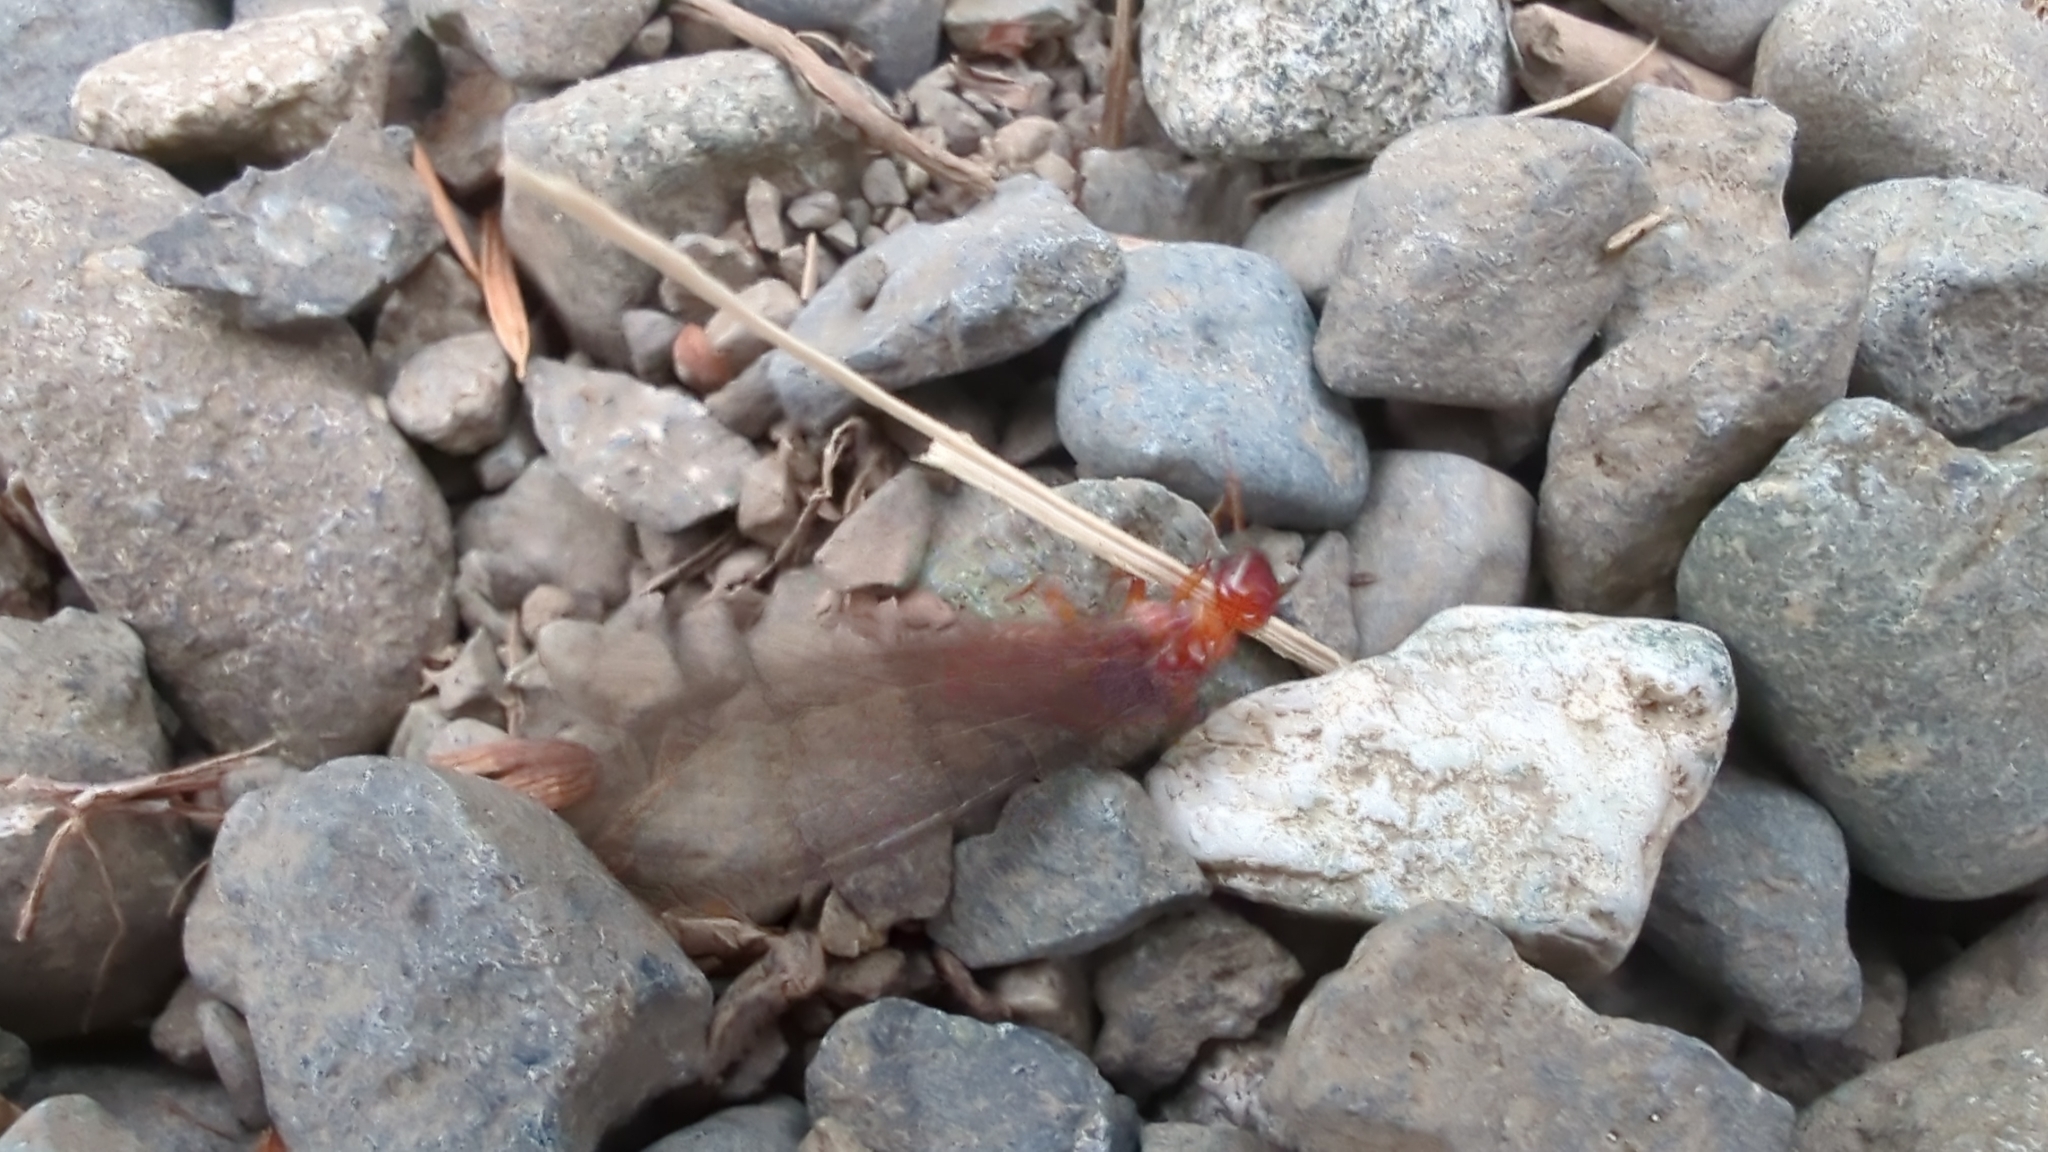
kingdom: Animalia
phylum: Arthropoda
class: Insecta
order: Blattodea
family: Archotermopsidae
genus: Zootermopsis
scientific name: Zootermopsis angusticollis
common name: Rottenwood termite
